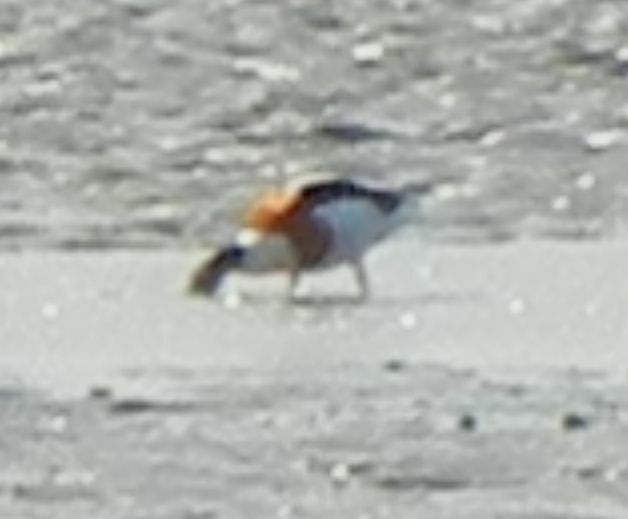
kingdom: Animalia
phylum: Chordata
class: Aves
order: Anseriformes
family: Anatidae
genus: Tadorna
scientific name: Tadorna tadorna
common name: Common shelduck
